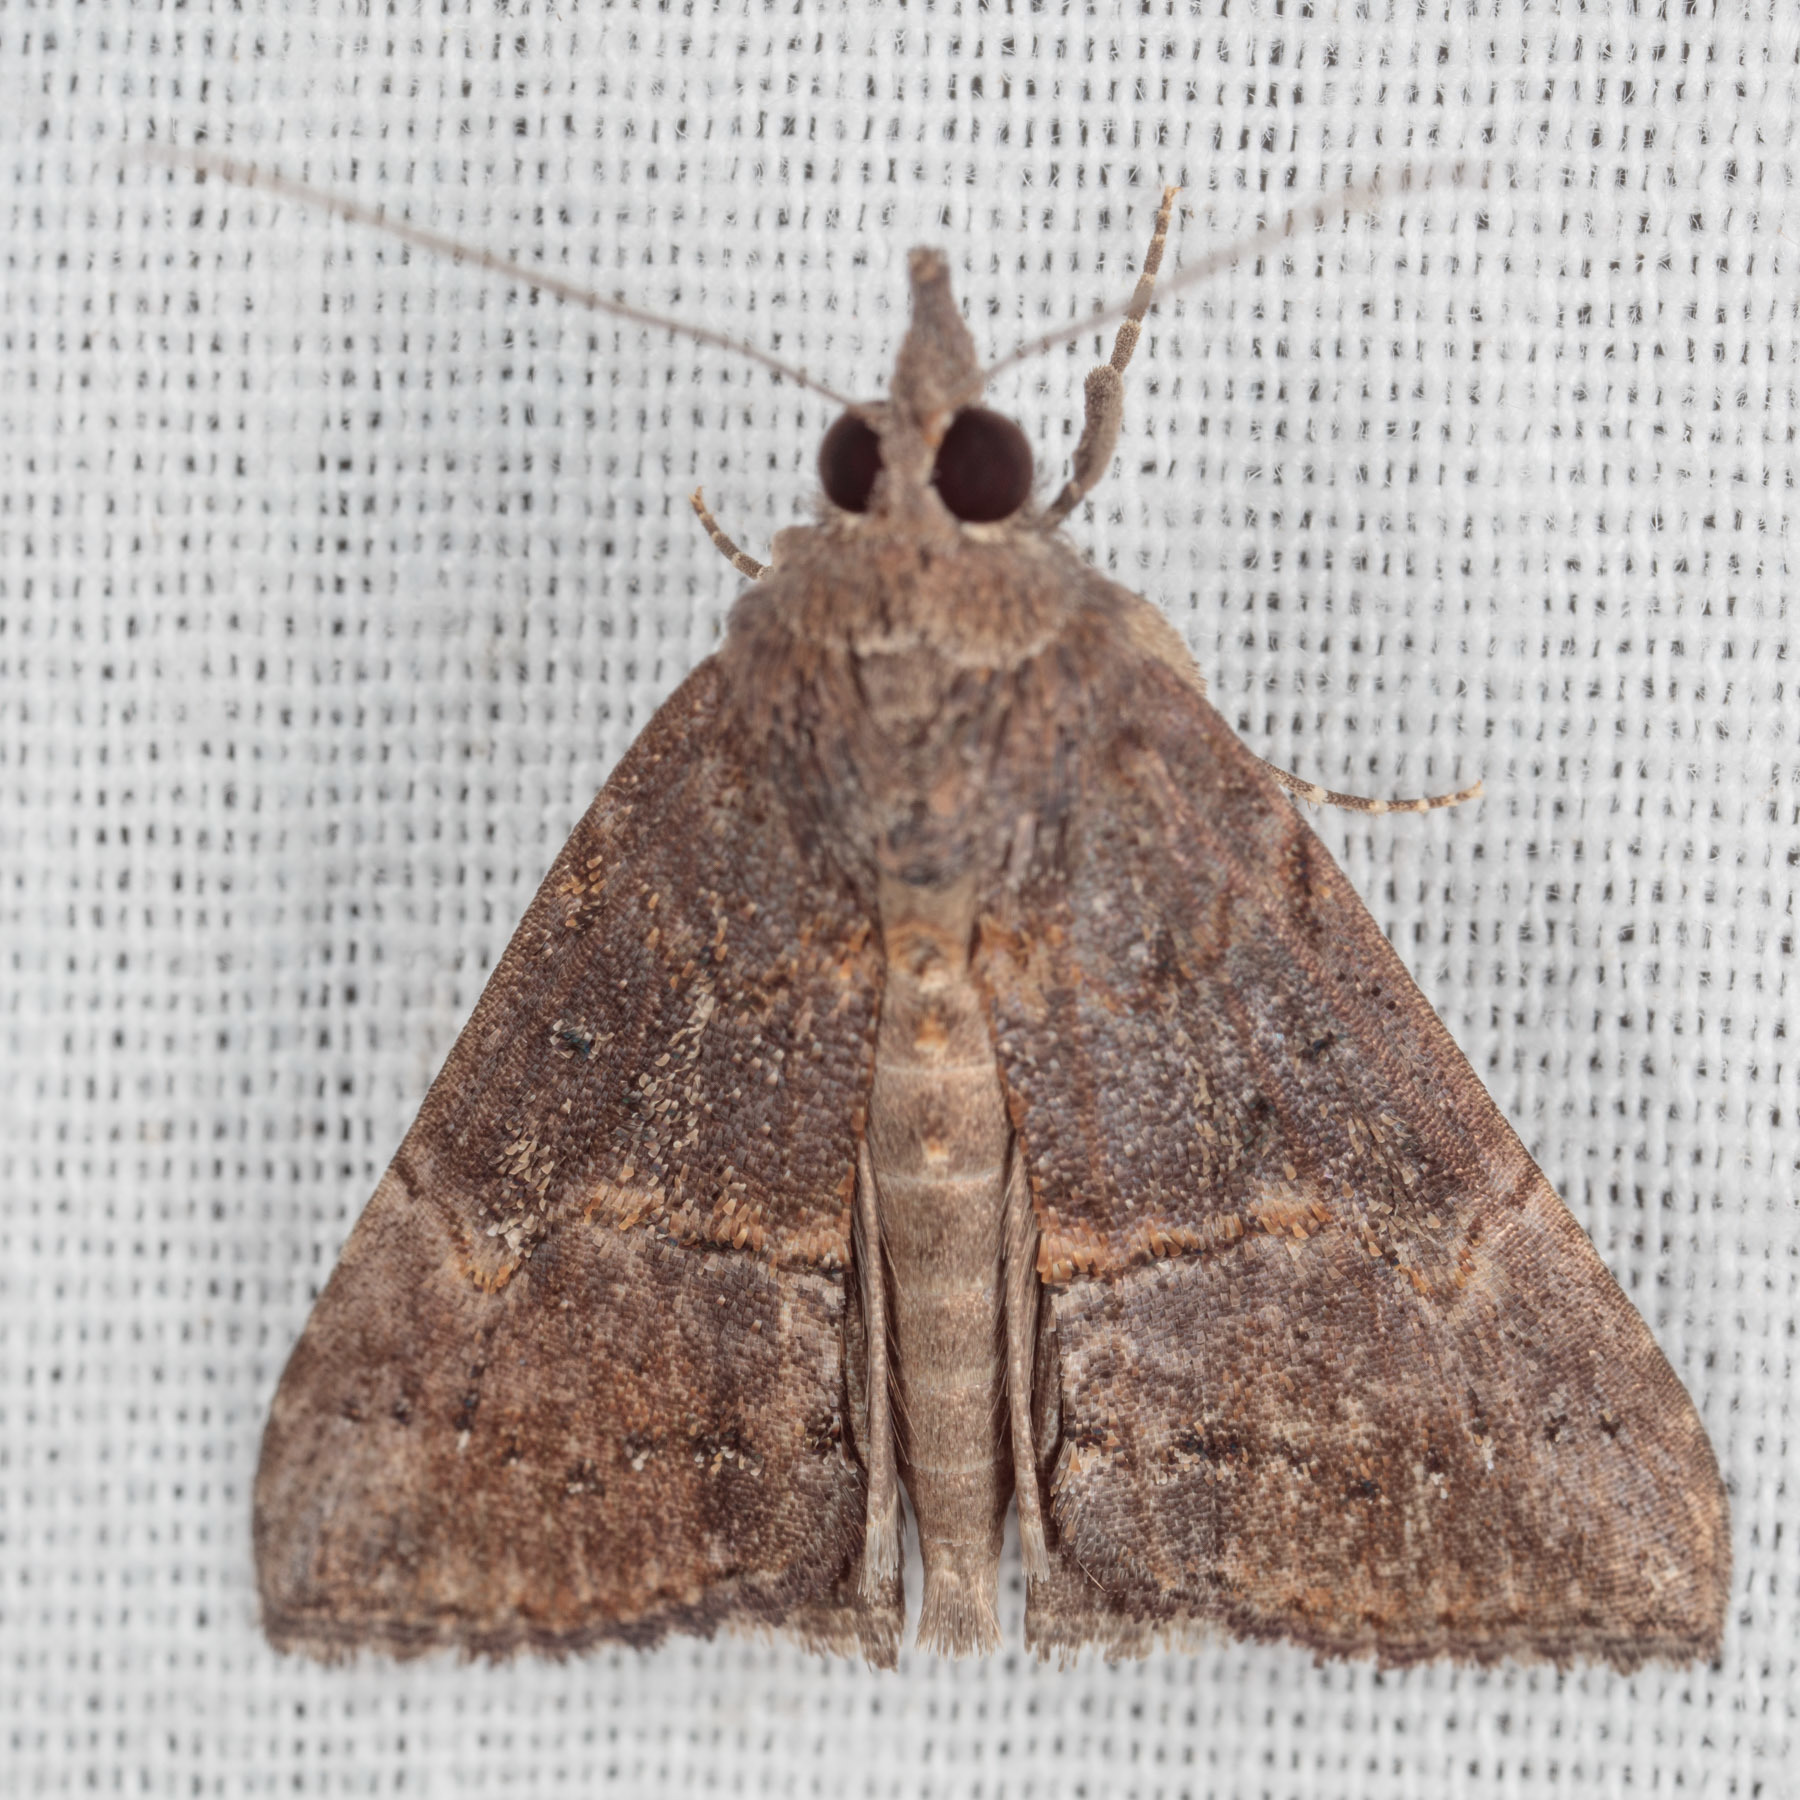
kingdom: Animalia
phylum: Arthropoda
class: Insecta
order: Lepidoptera
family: Erebidae
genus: Hypena
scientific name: Hypena scabra
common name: Green cloverworm
